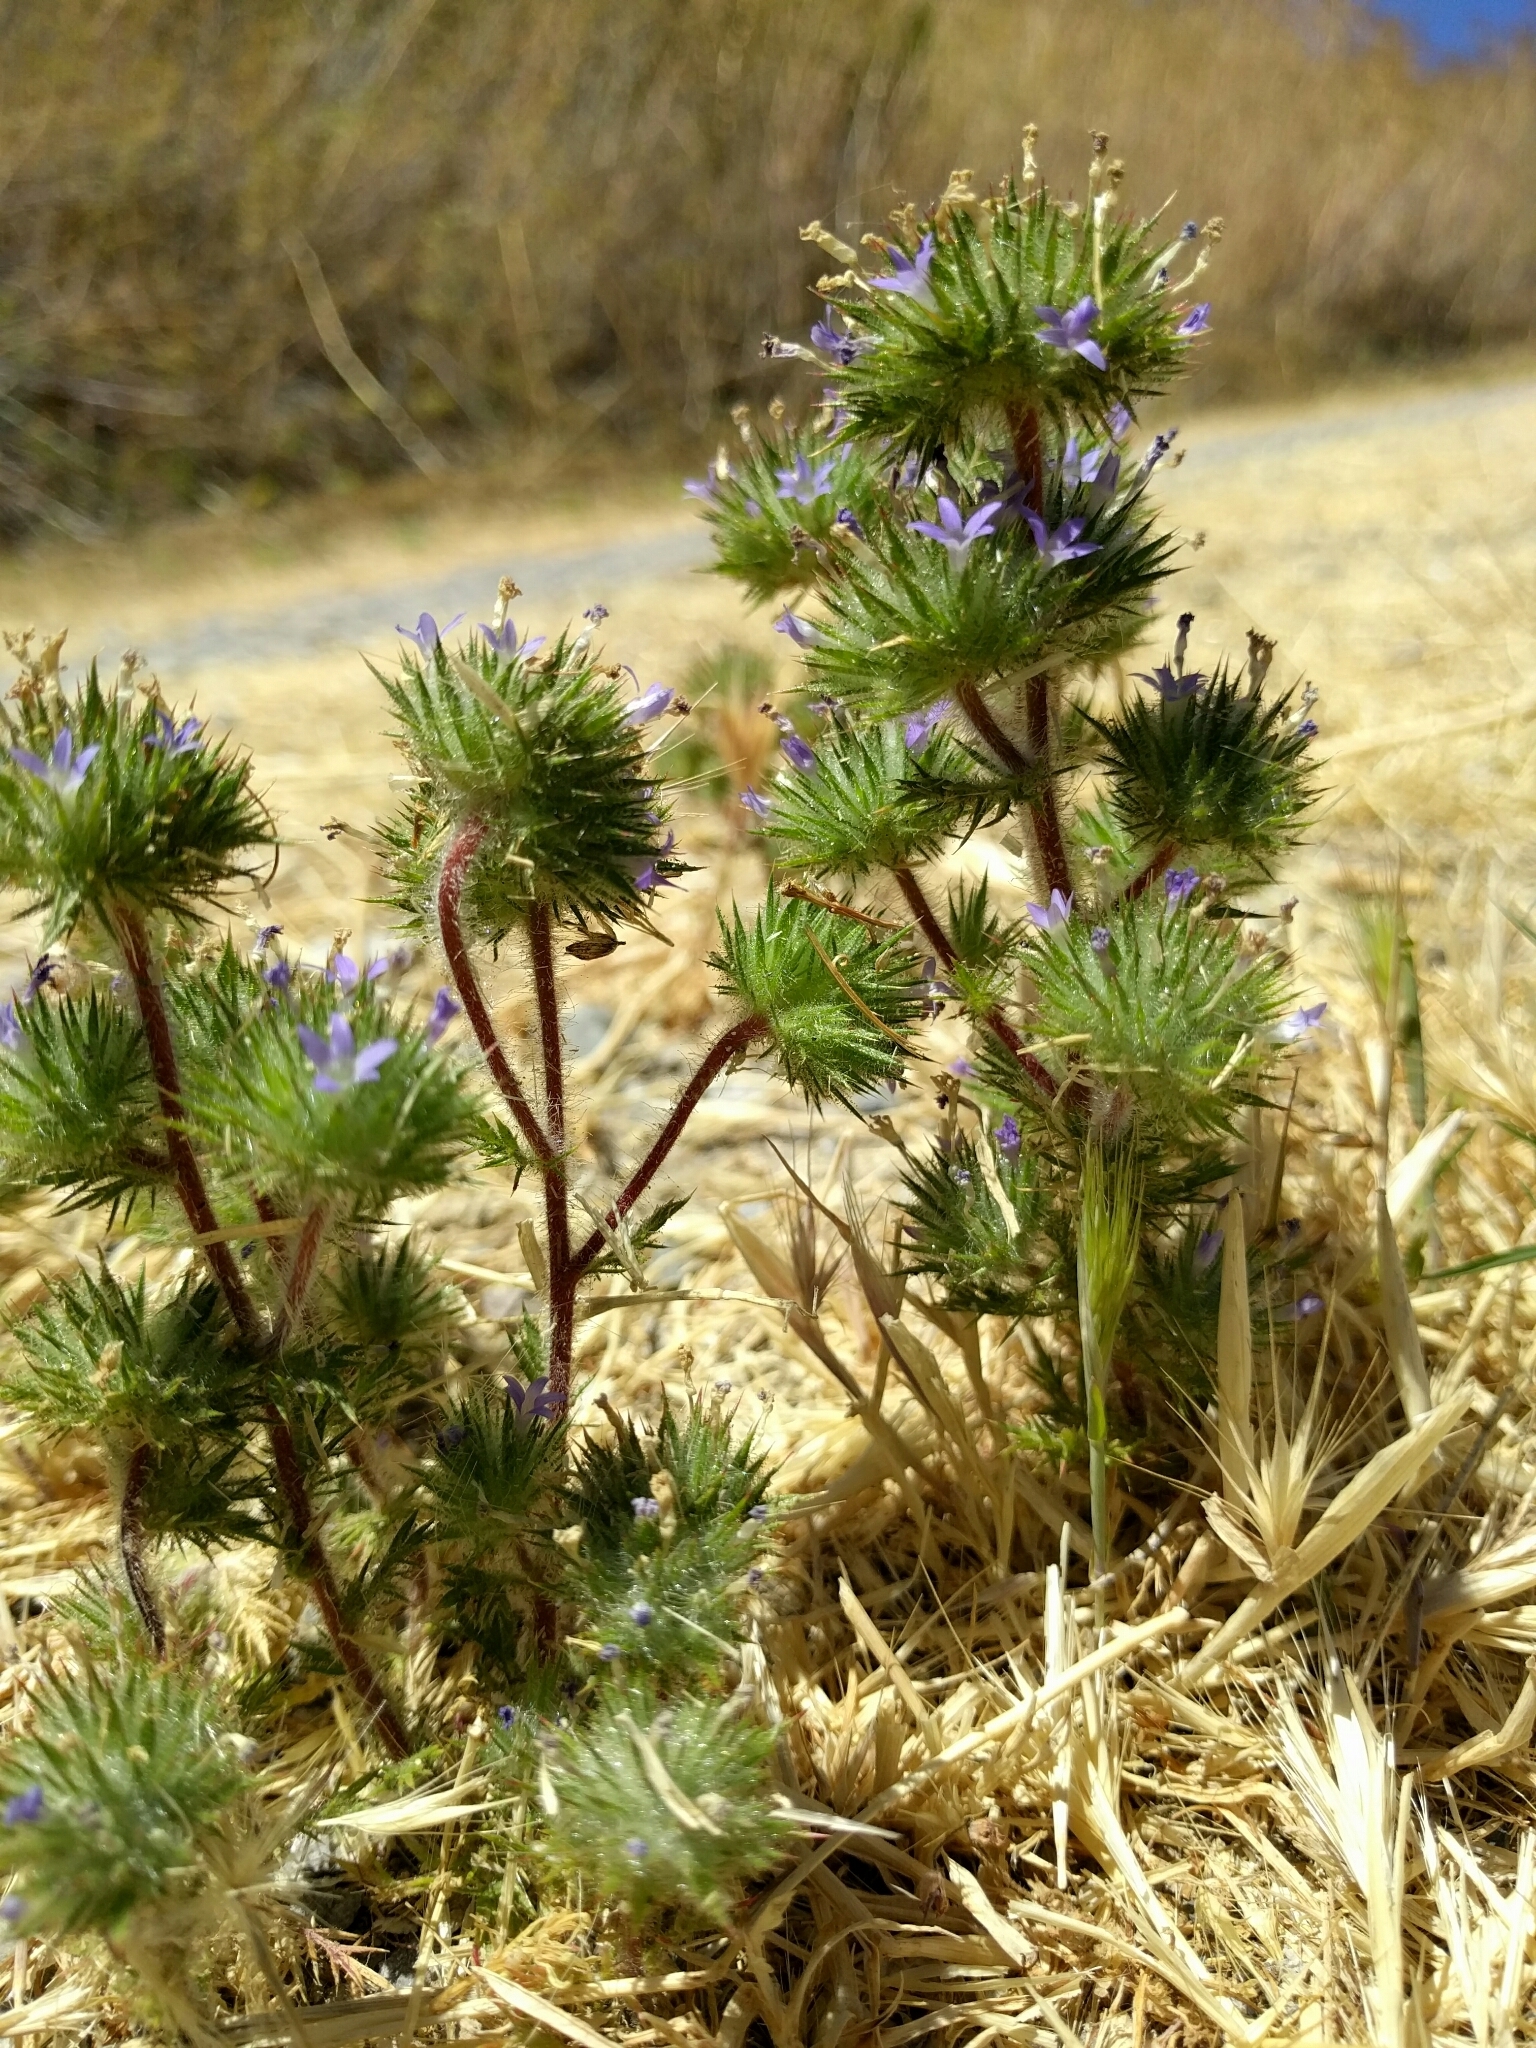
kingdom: Plantae
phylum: Tracheophyta
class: Magnoliopsida
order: Ericales
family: Polemoniaceae
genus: Navarretia
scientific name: Navarretia squarrosa
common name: Skunkweed
